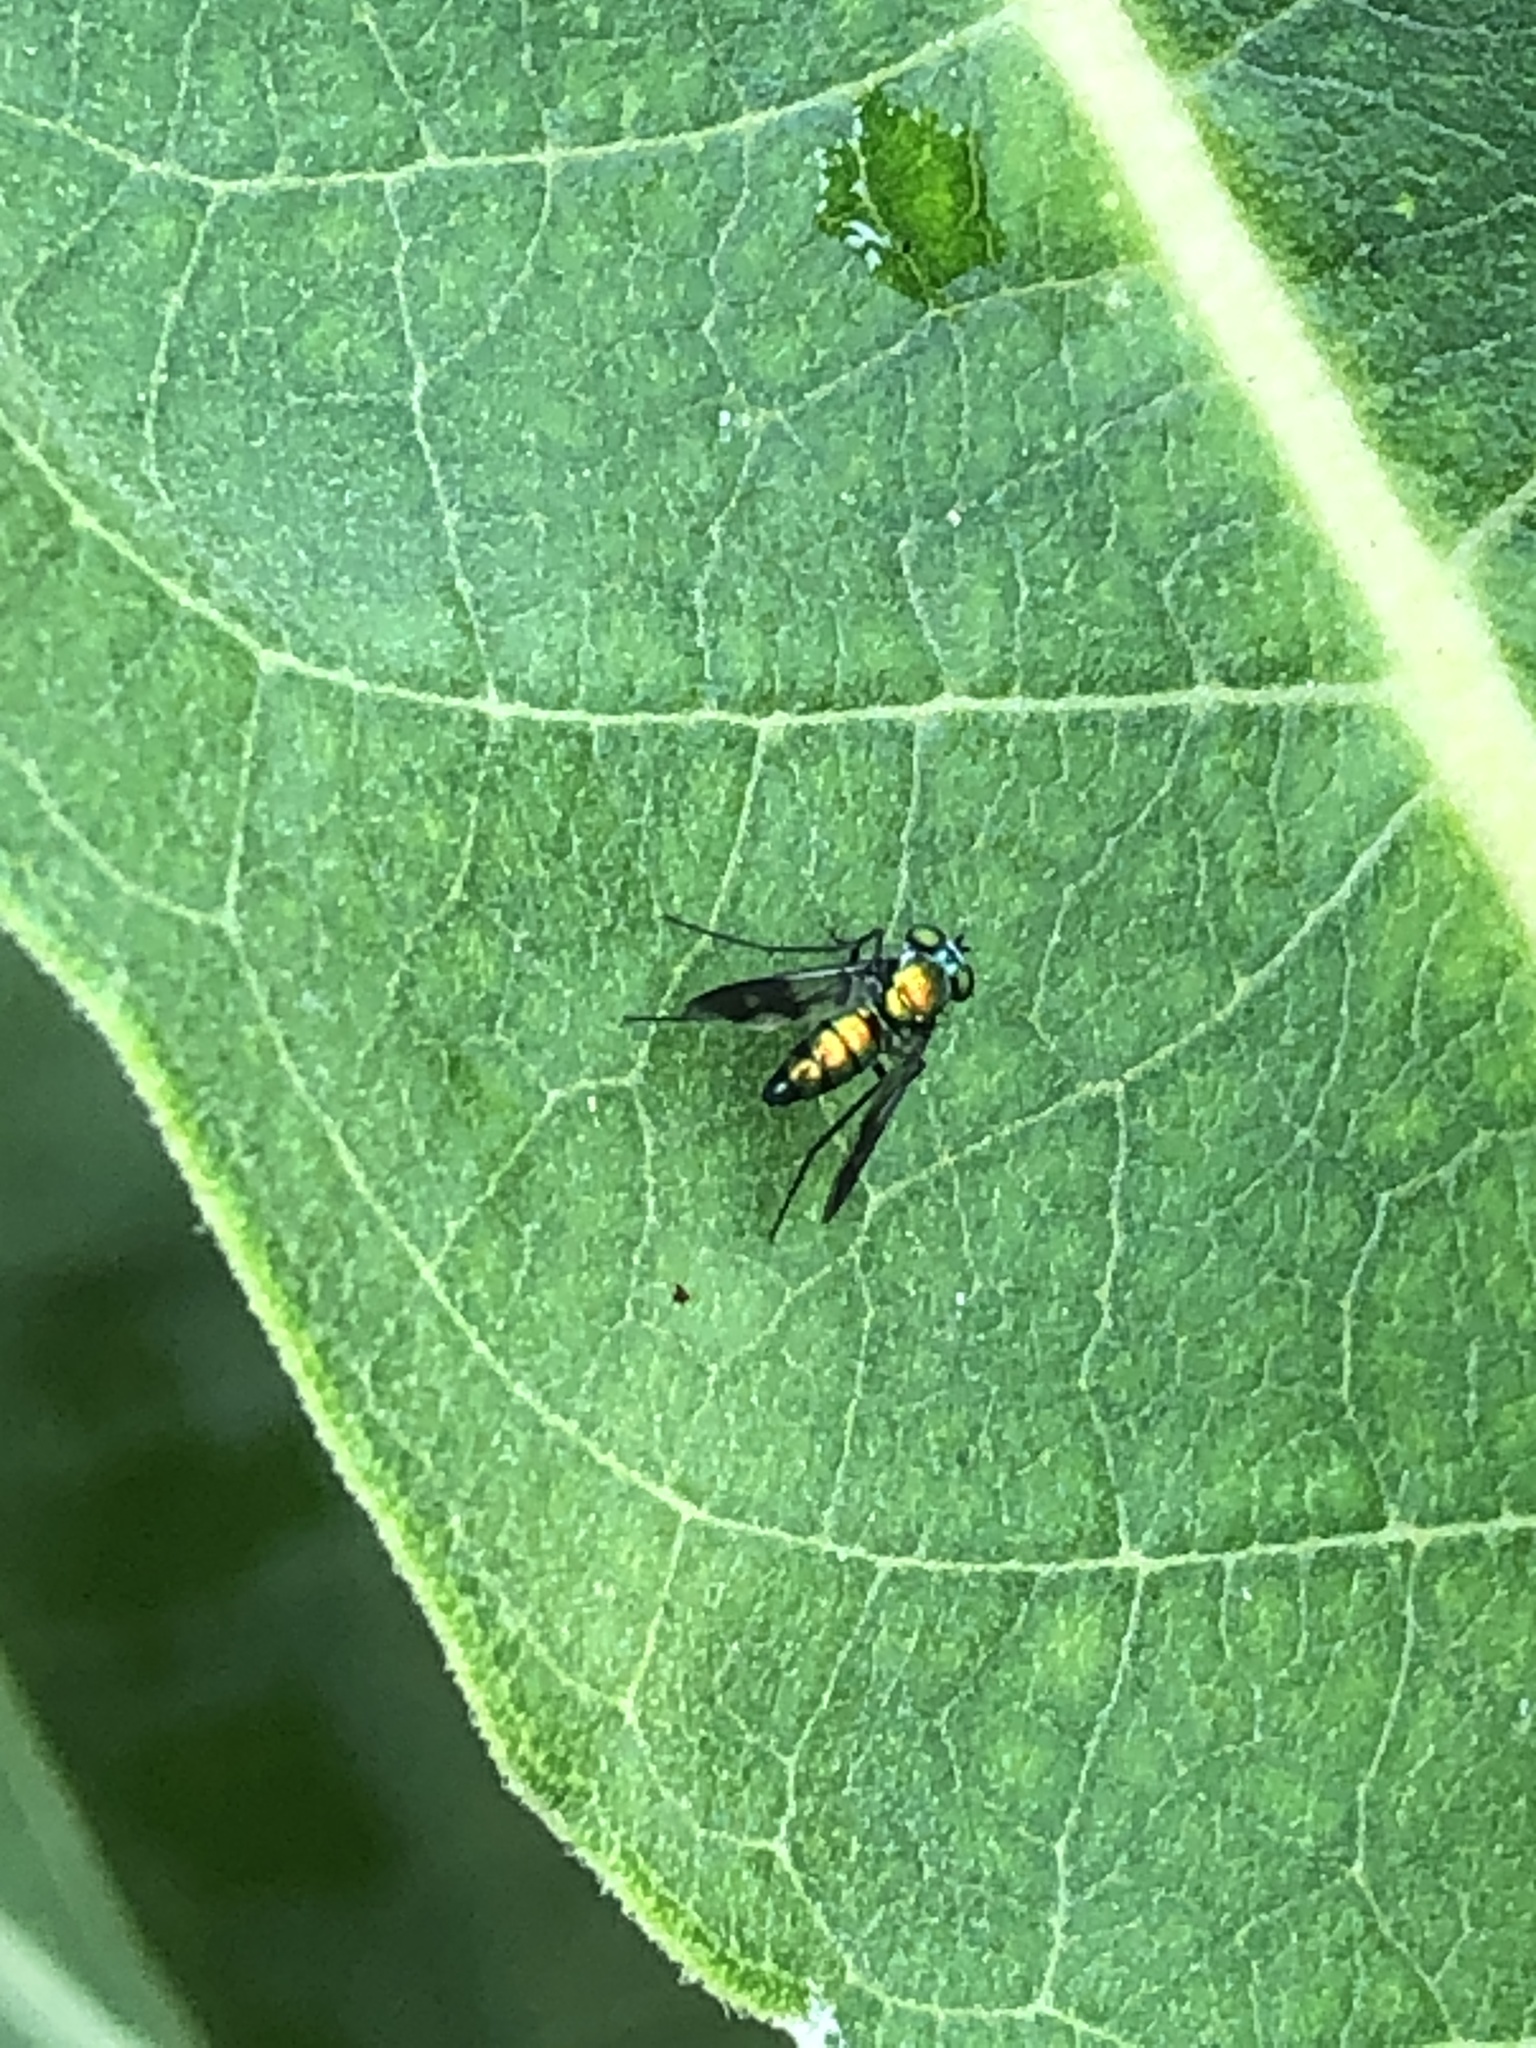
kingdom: Animalia
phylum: Arthropoda
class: Insecta
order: Diptera
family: Dolichopodidae
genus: Condylostylus
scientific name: Condylostylus patibulatus
